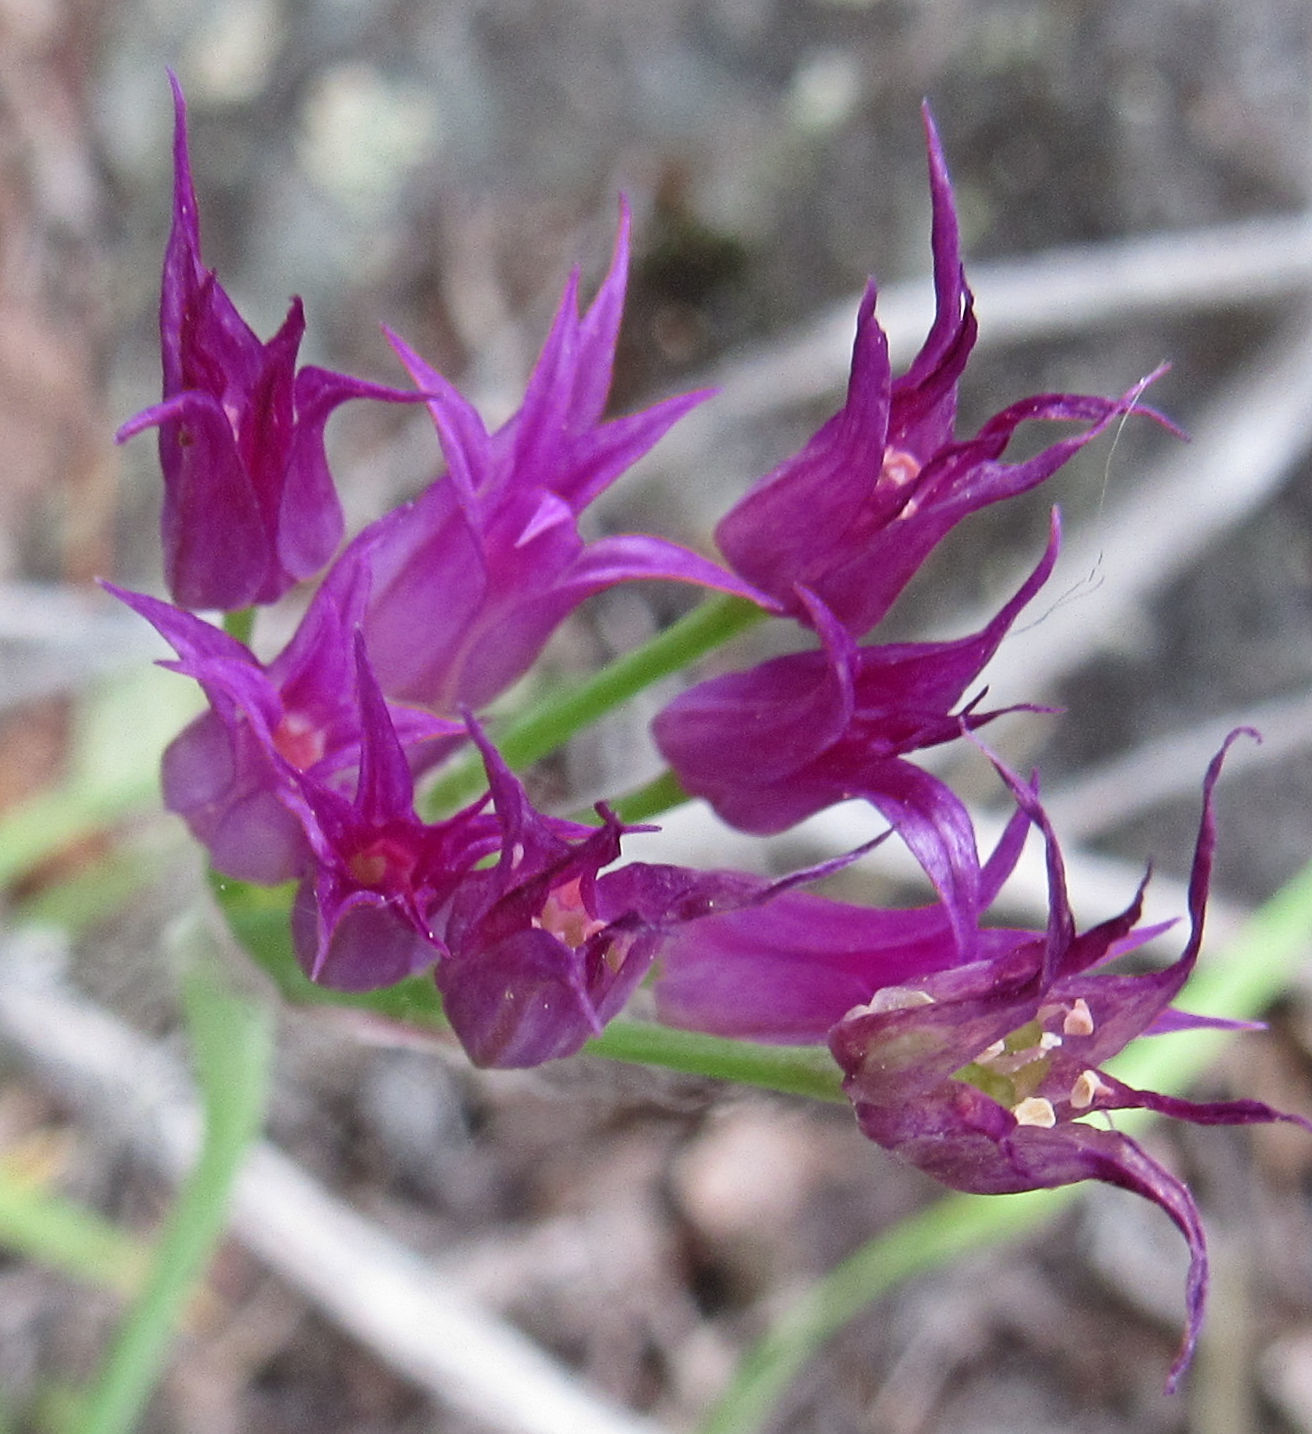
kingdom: Plantae
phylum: Tracheophyta
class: Liliopsida
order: Asparagales
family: Amaryllidaceae
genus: Allium
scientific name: Allium brevistylum
